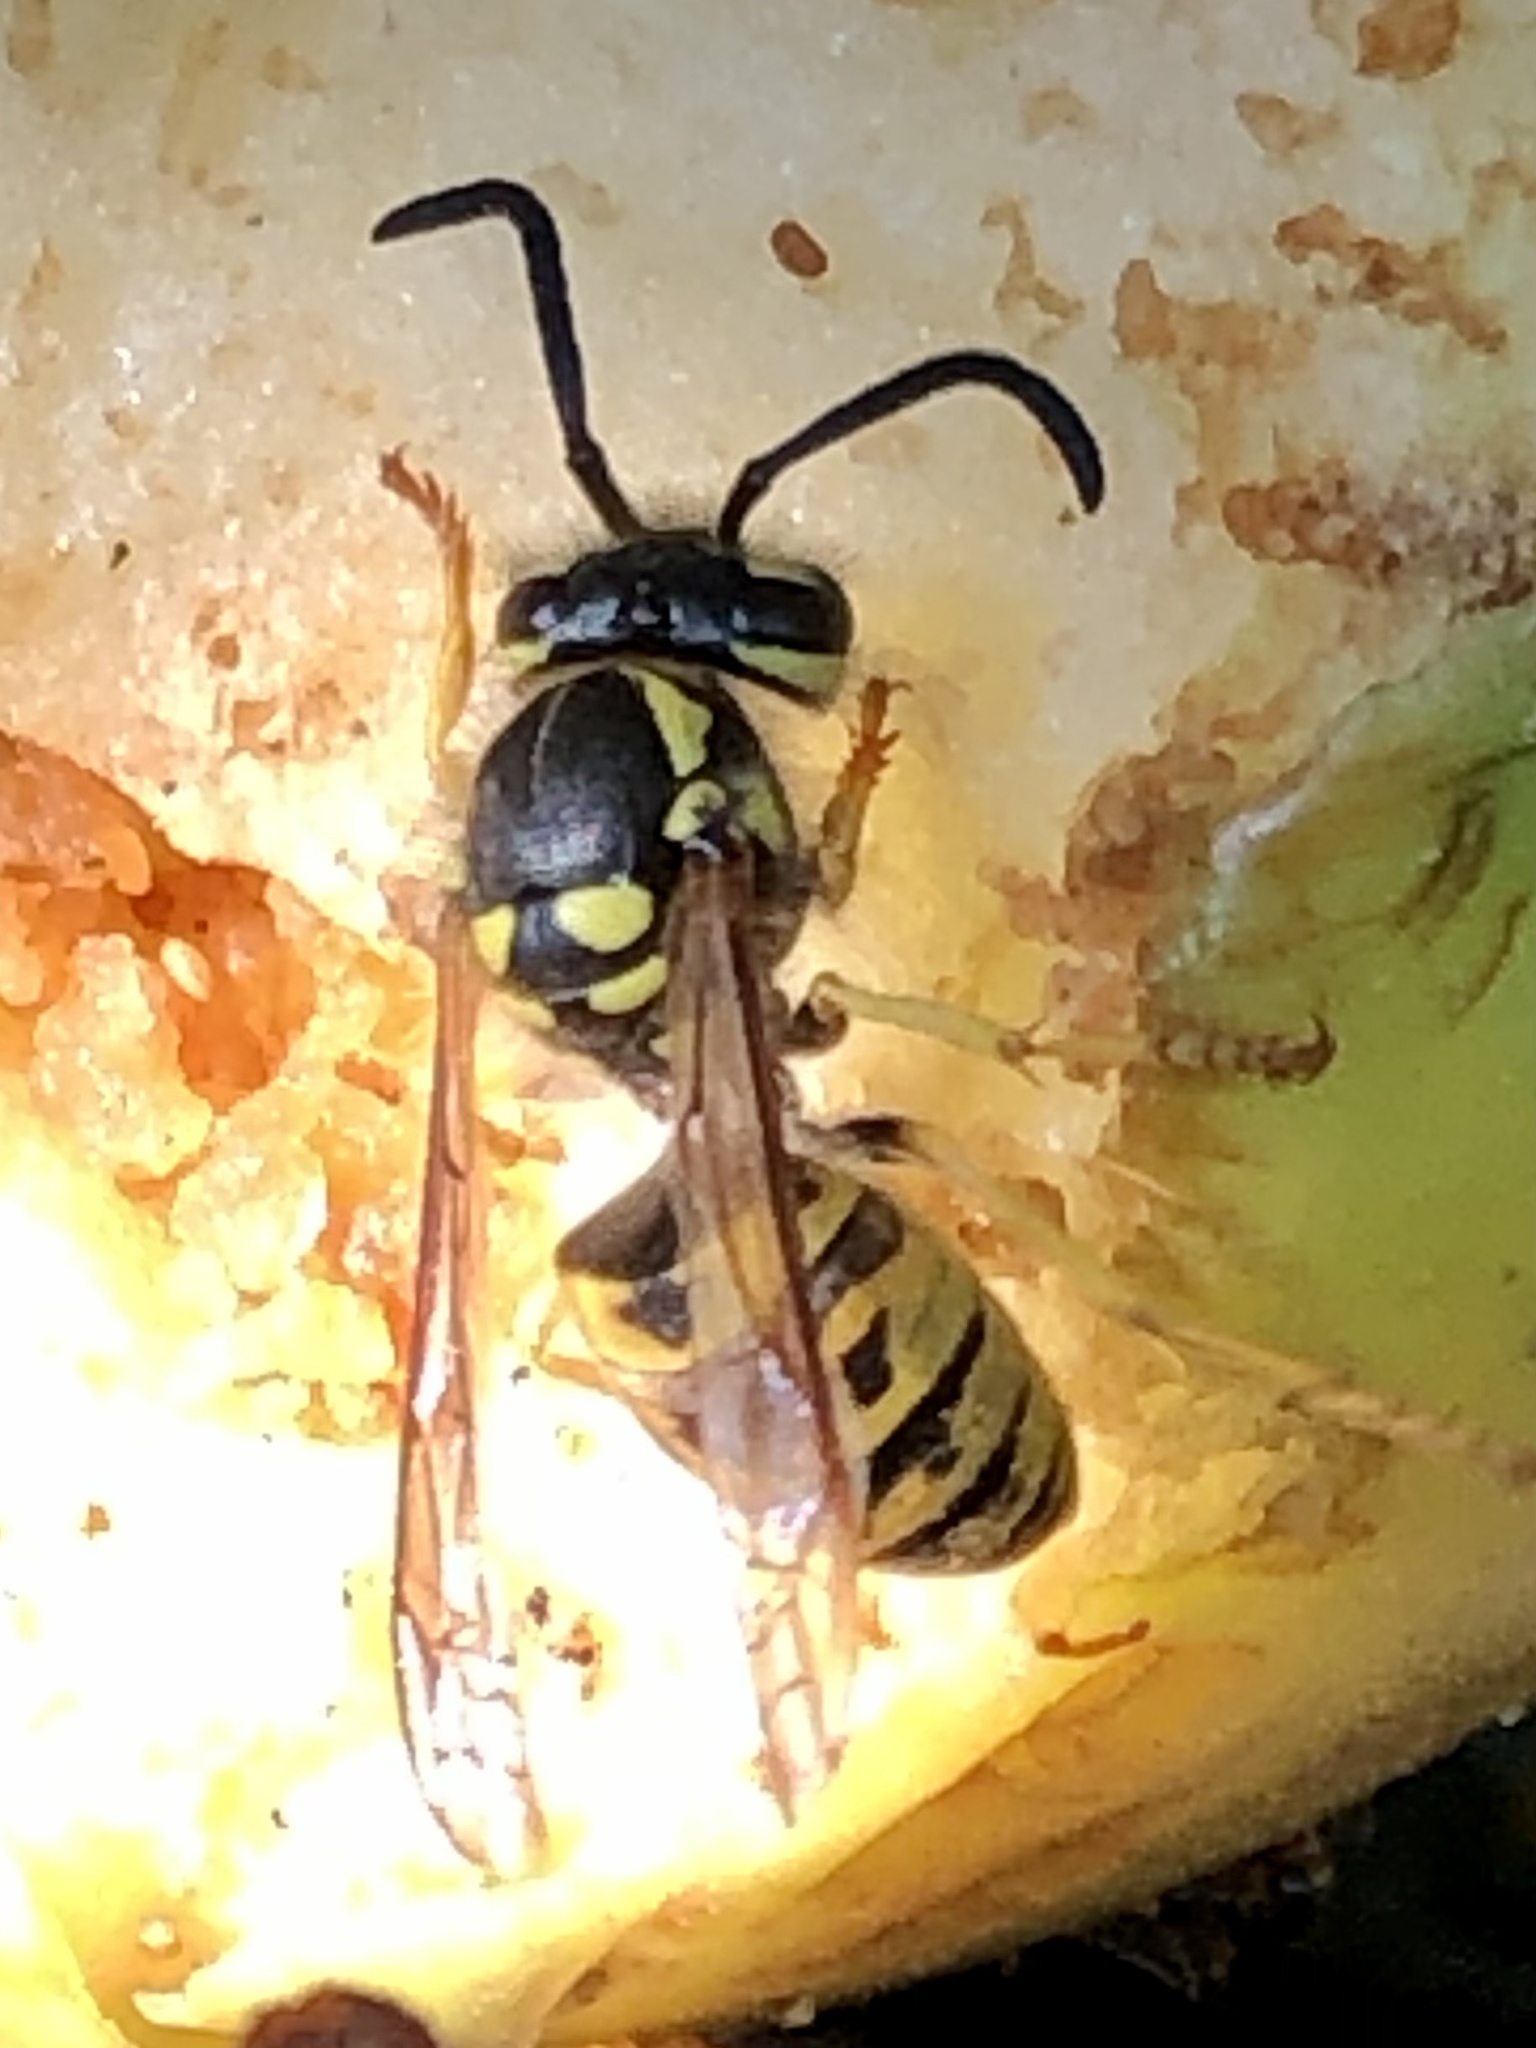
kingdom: Animalia
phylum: Arthropoda
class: Insecta
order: Hymenoptera
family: Vespidae
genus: Vespula
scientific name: Vespula germanica
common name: German wasp
